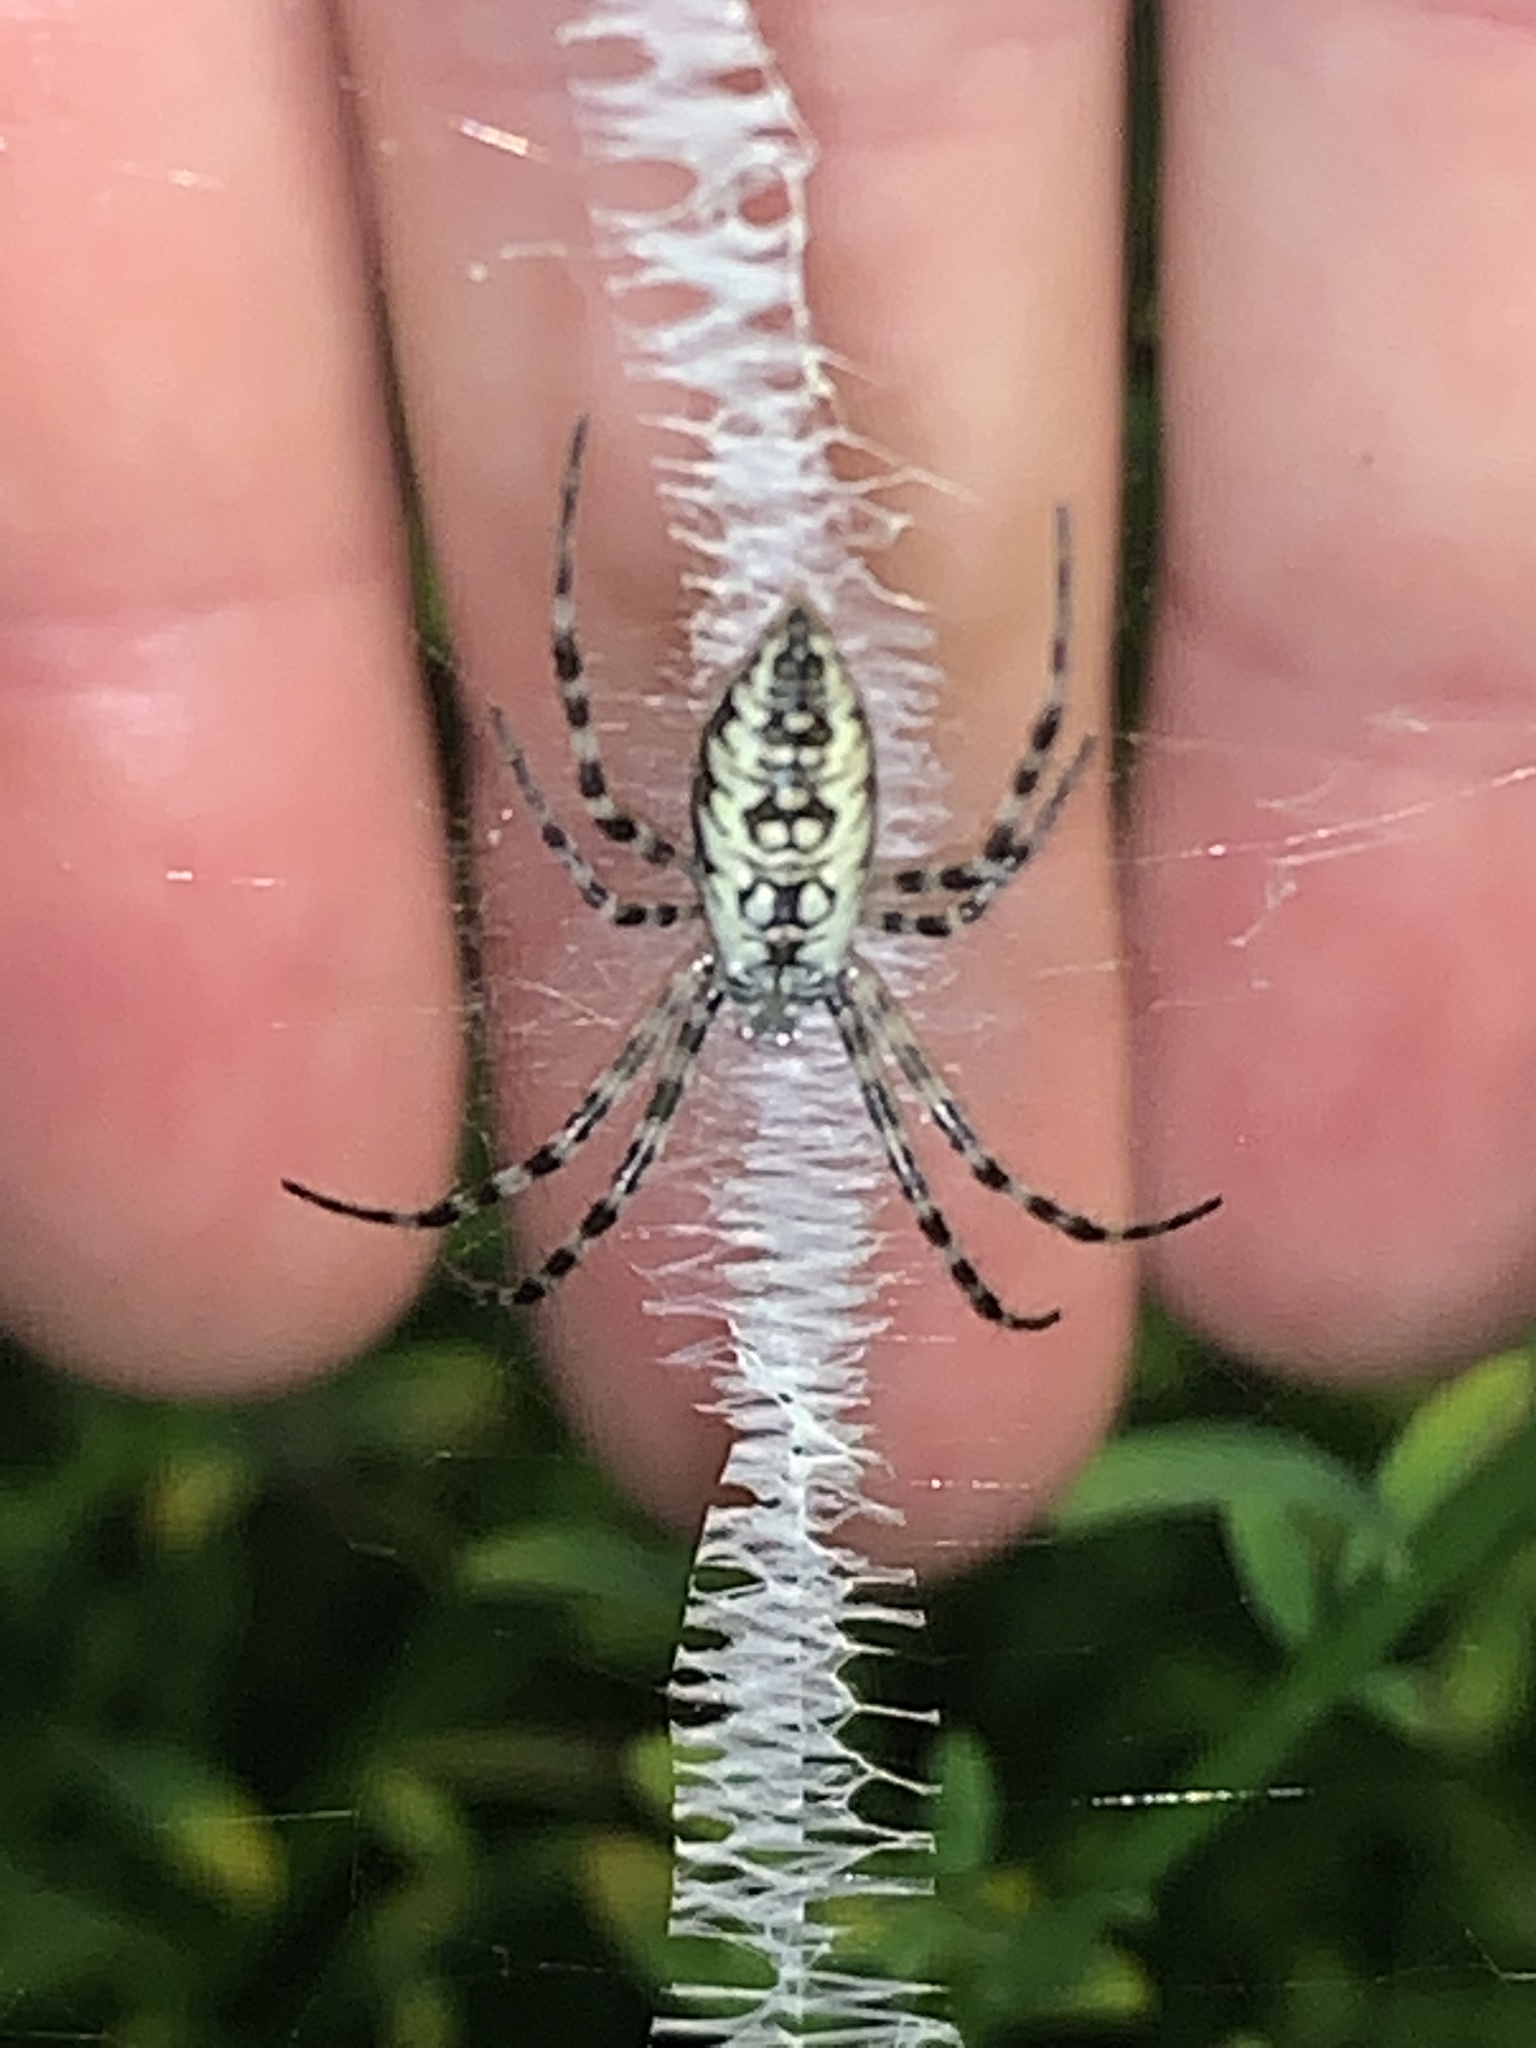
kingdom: Animalia
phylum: Arthropoda
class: Arachnida
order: Araneae
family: Araneidae
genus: Argiope
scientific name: Argiope aurantia
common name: Orb weavers
